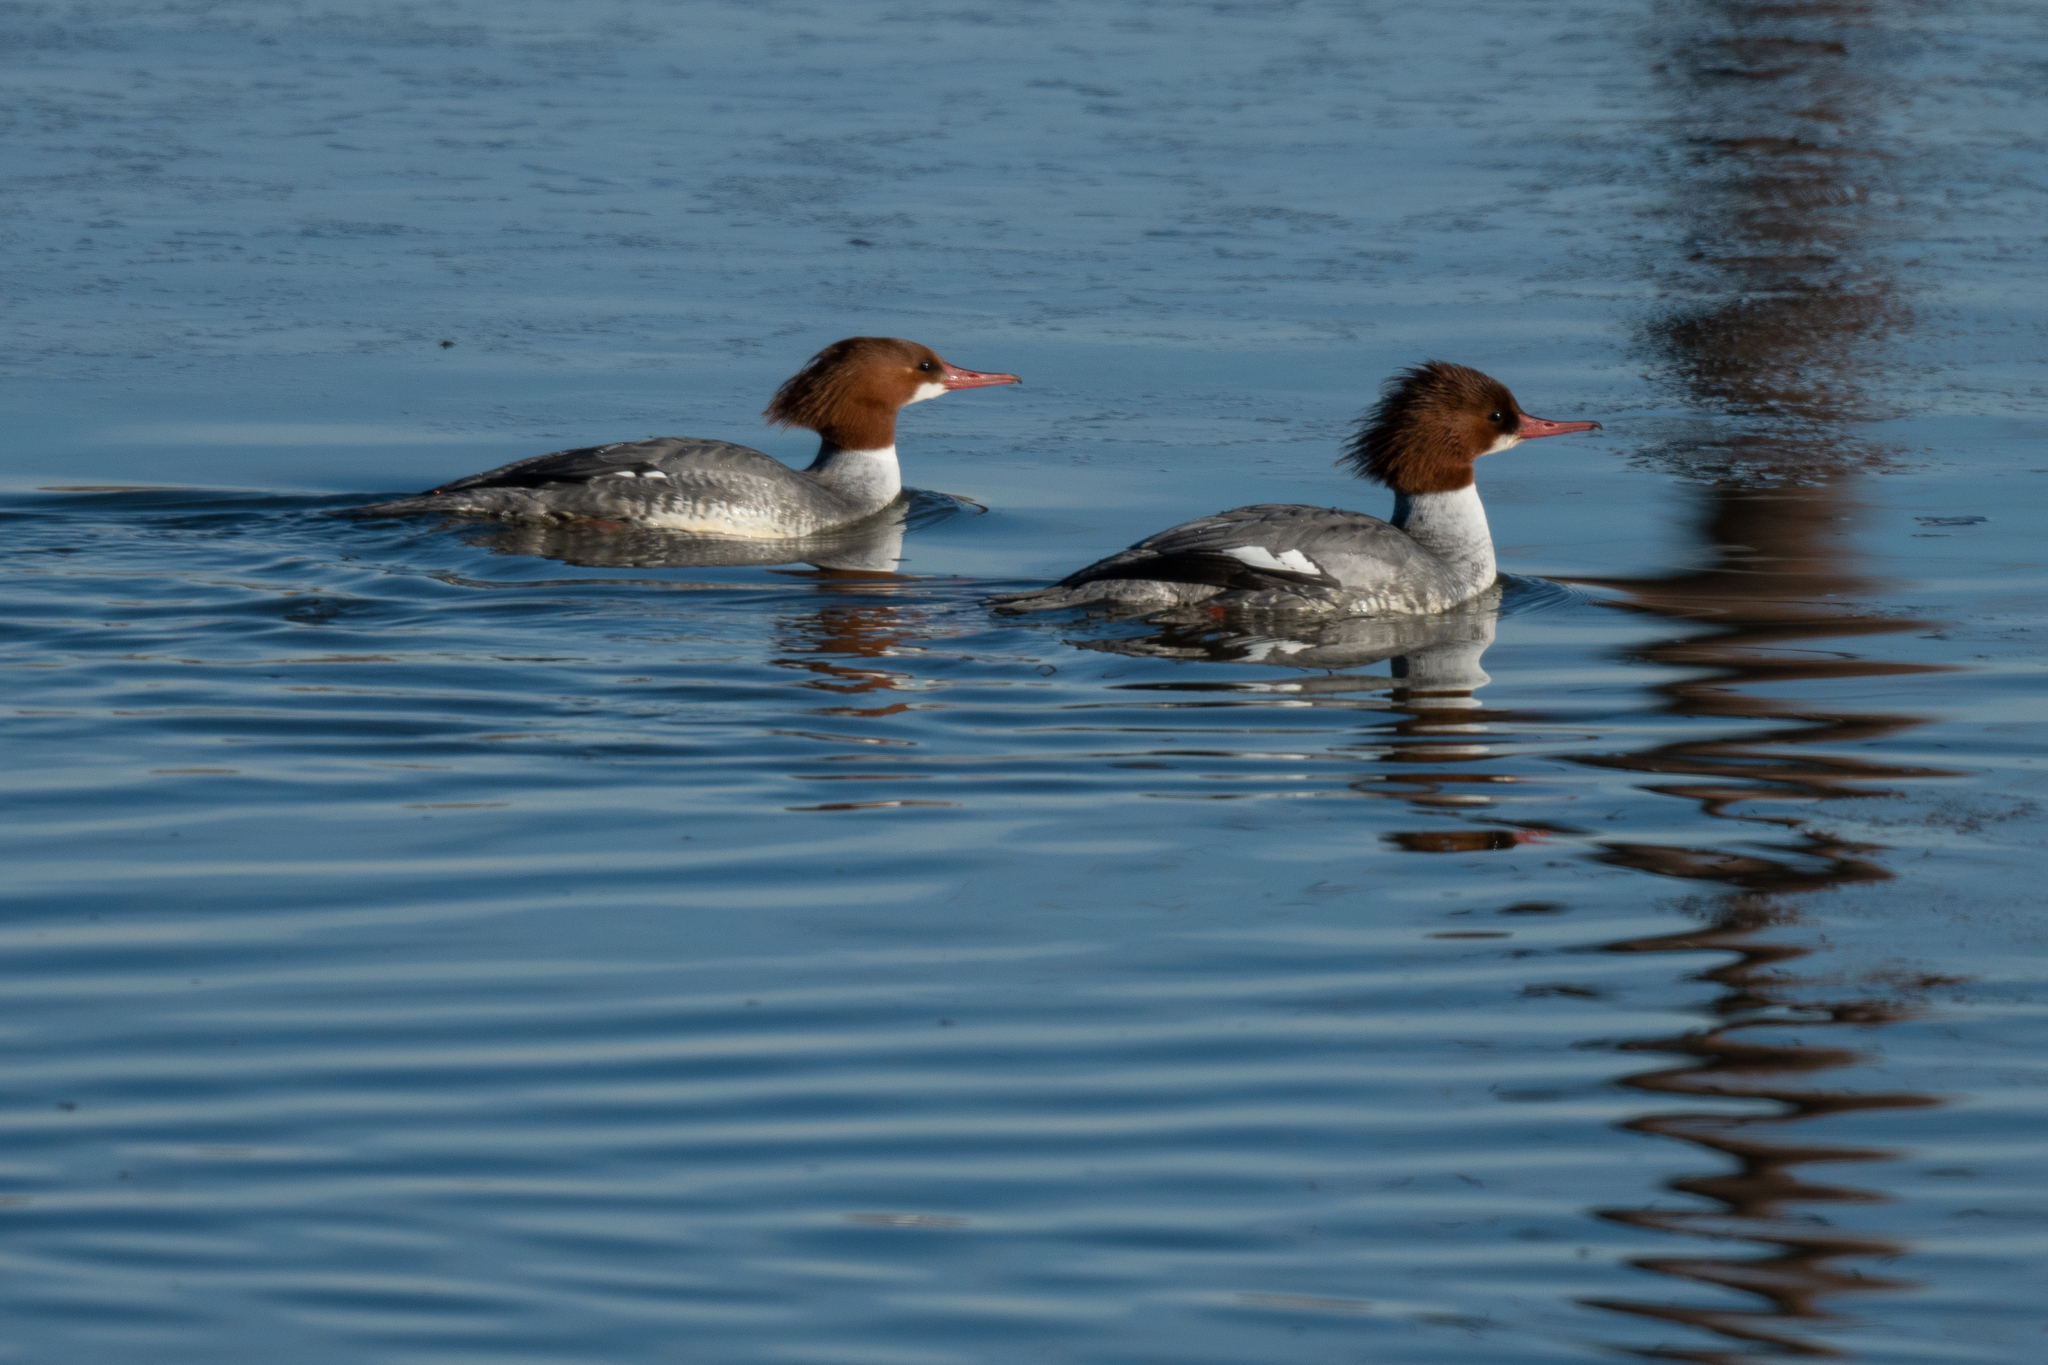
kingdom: Animalia
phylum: Chordata
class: Aves
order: Anseriformes
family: Anatidae
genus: Mergus
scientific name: Mergus merganser
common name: Common merganser
